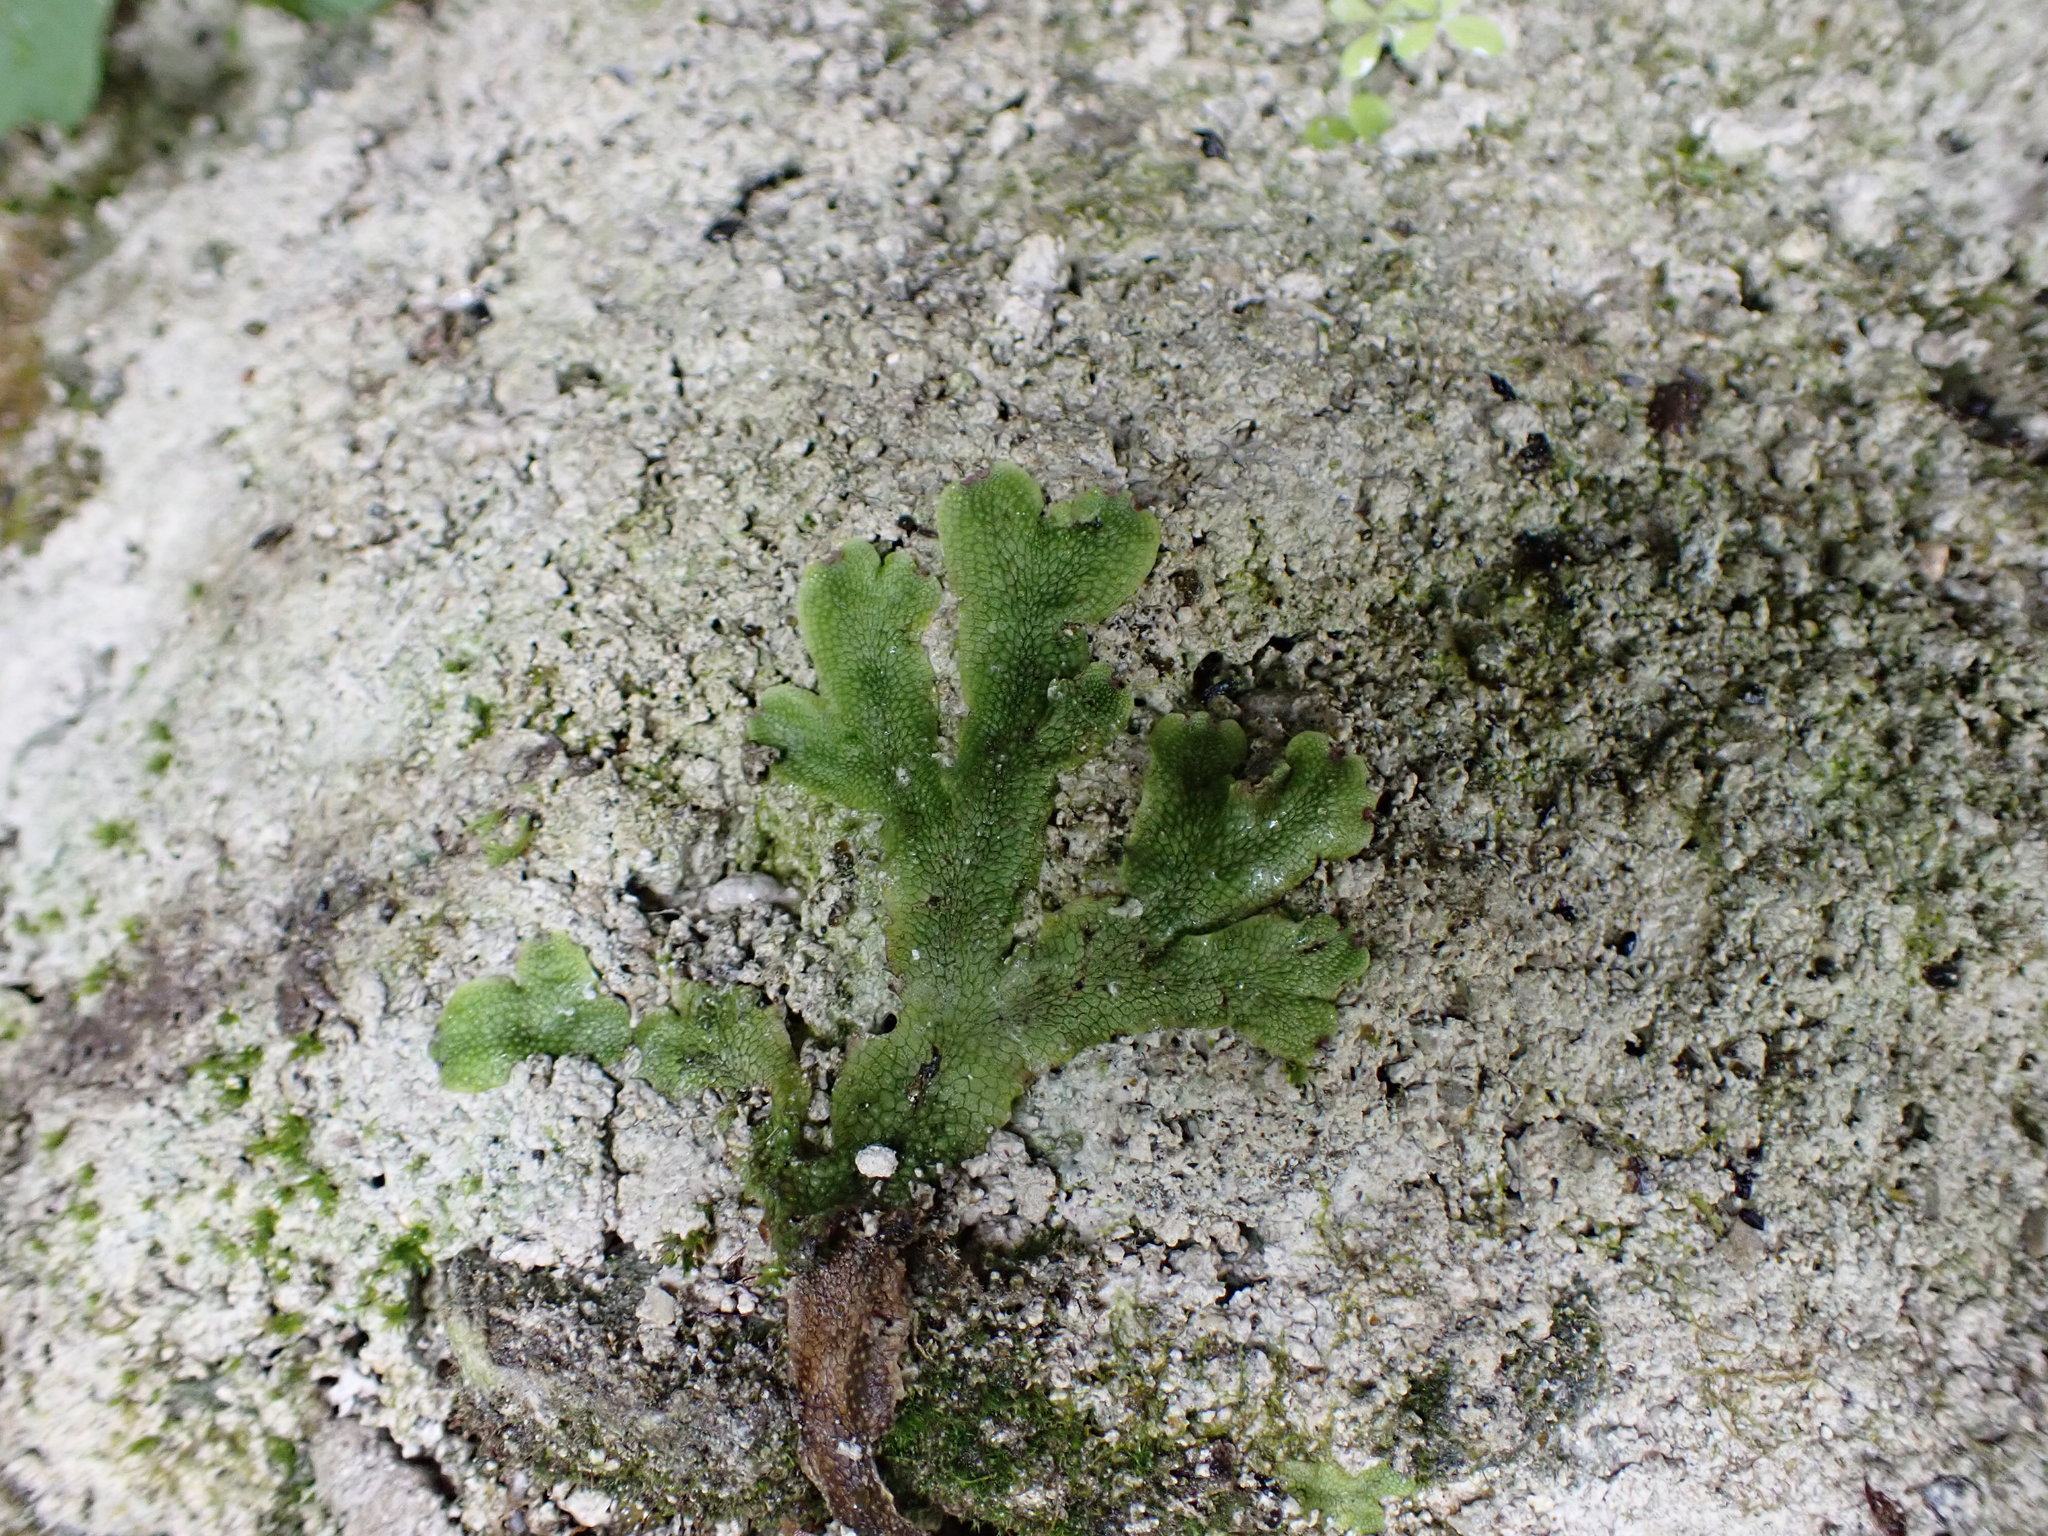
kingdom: Plantae
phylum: Marchantiophyta
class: Marchantiopsida
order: Marchantiales
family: Conocephalaceae
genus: Conocephalum
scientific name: Conocephalum salebrosum
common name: Cat-tongue liverwort
